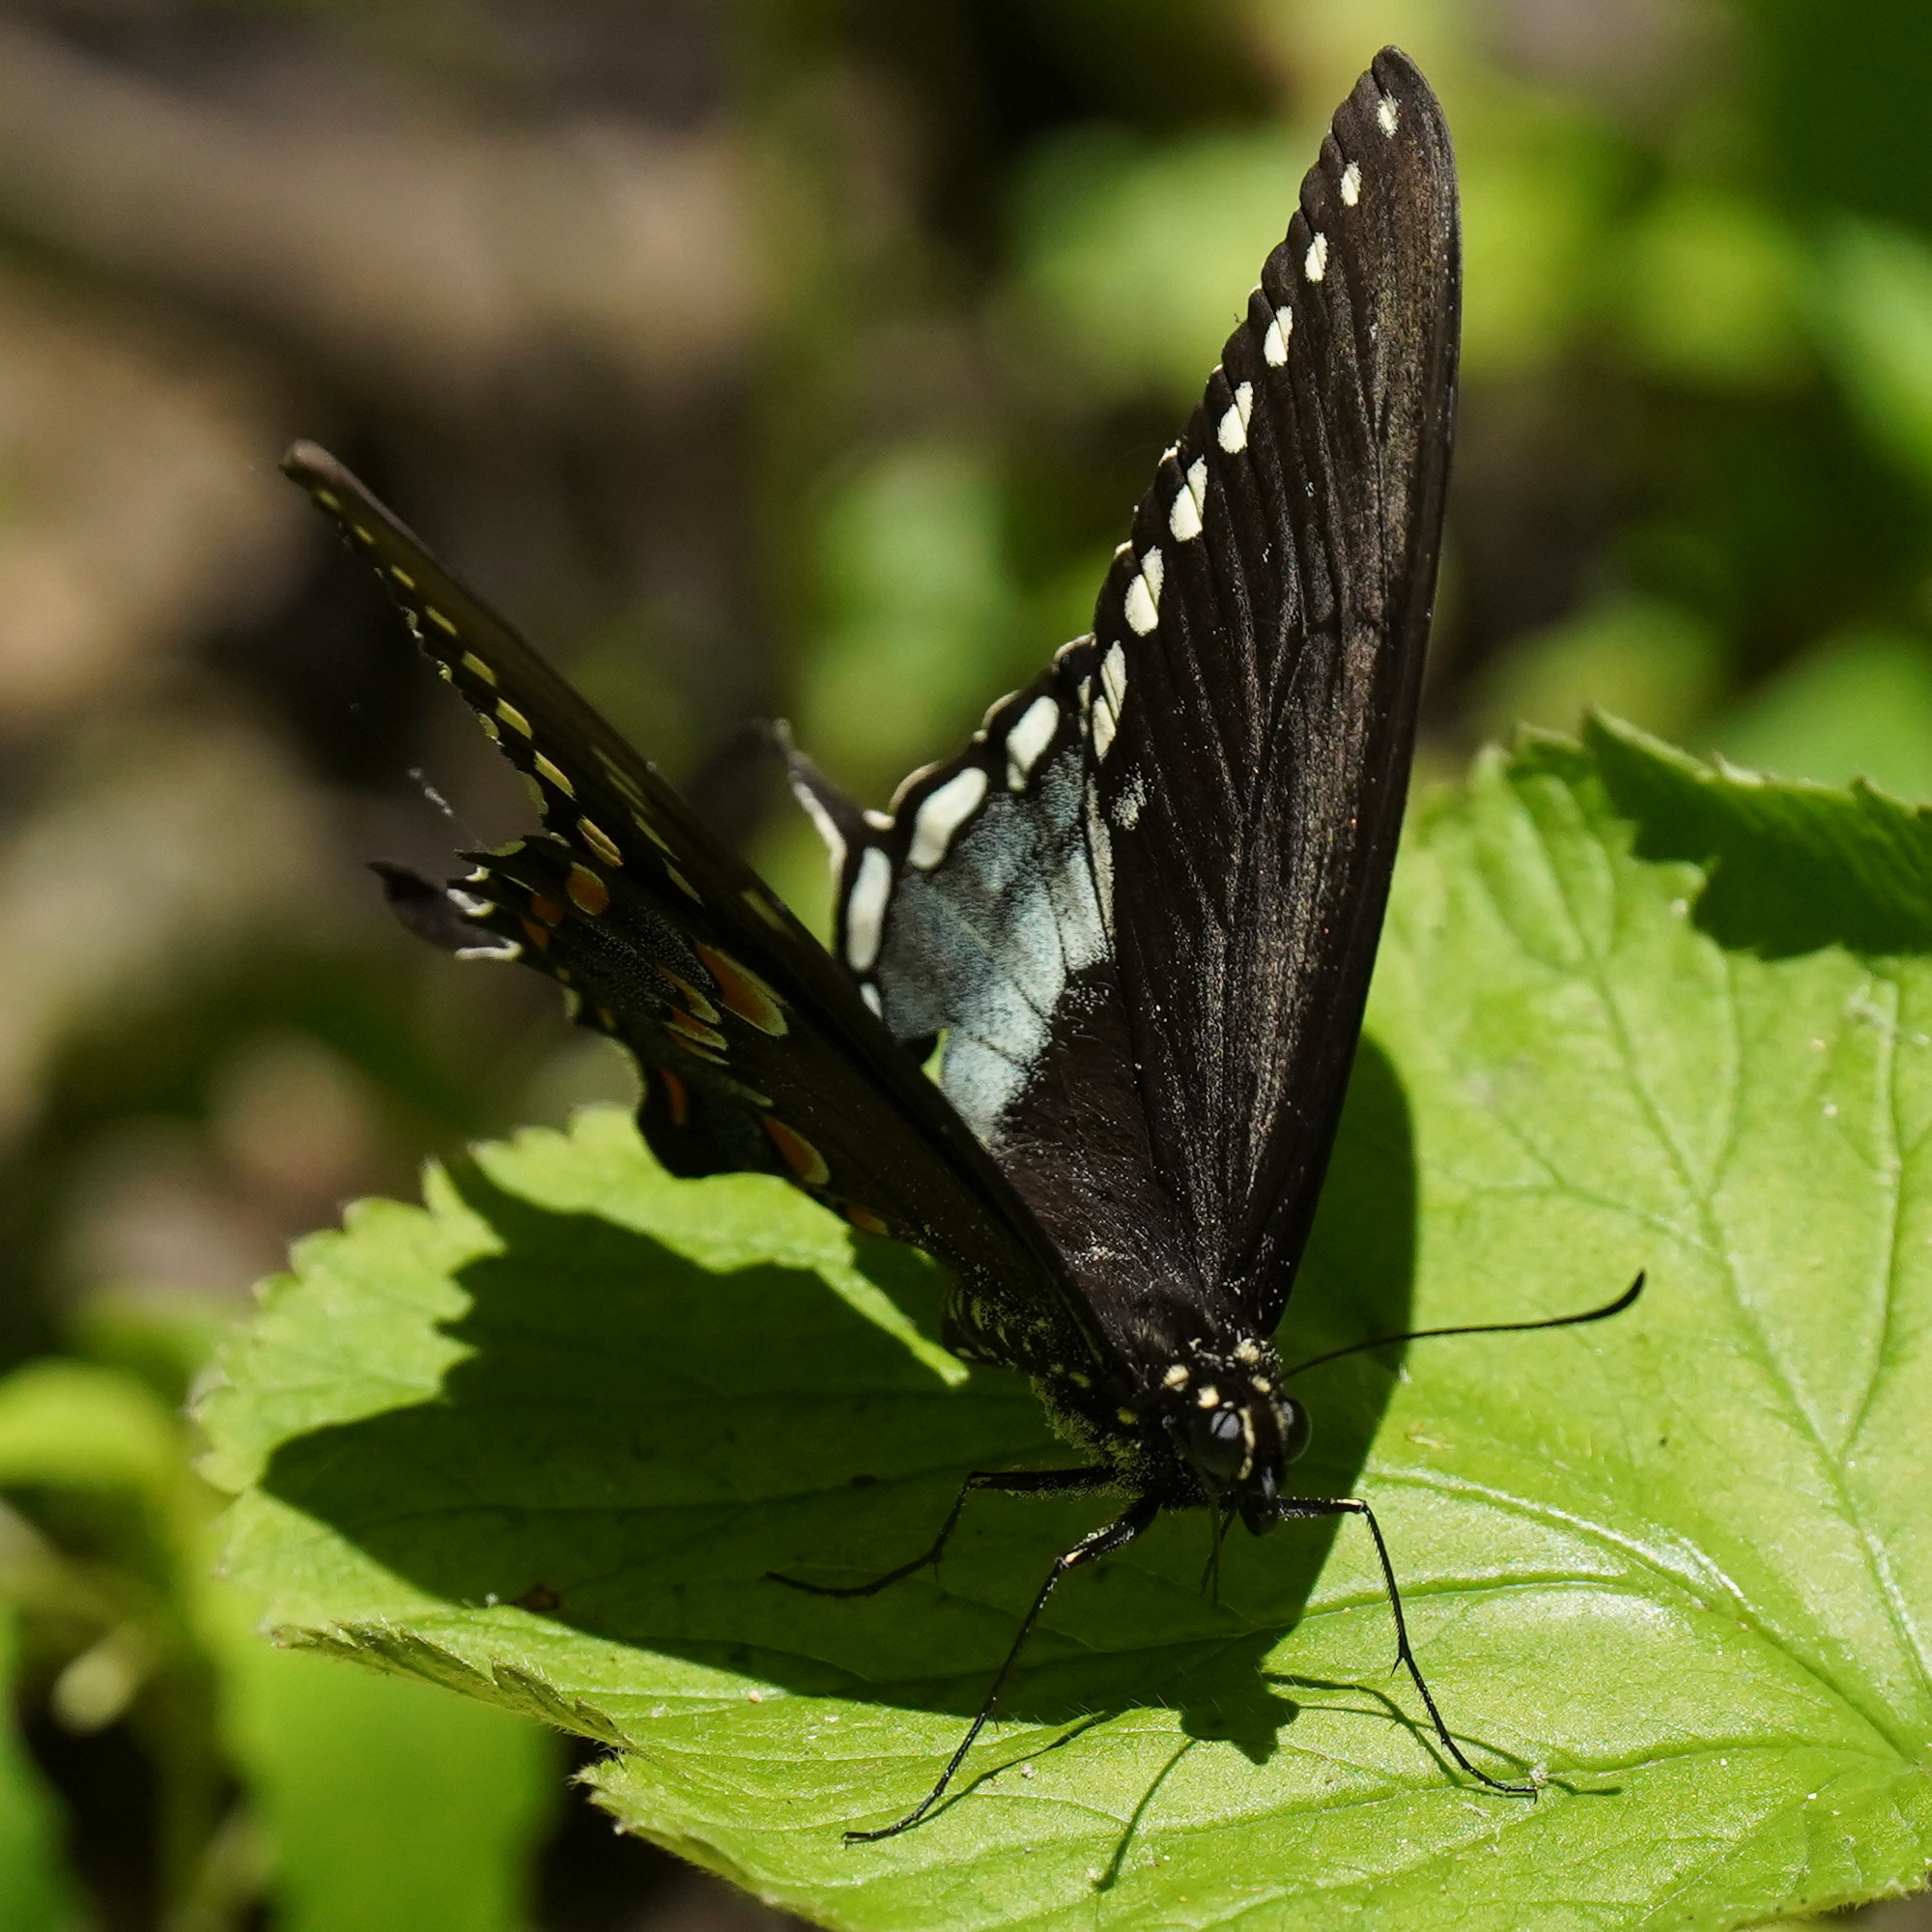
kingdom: Animalia
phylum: Arthropoda
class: Insecta
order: Lepidoptera
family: Papilionidae
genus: Papilio
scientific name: Papilio troilus
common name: Spicebush swallowtail
